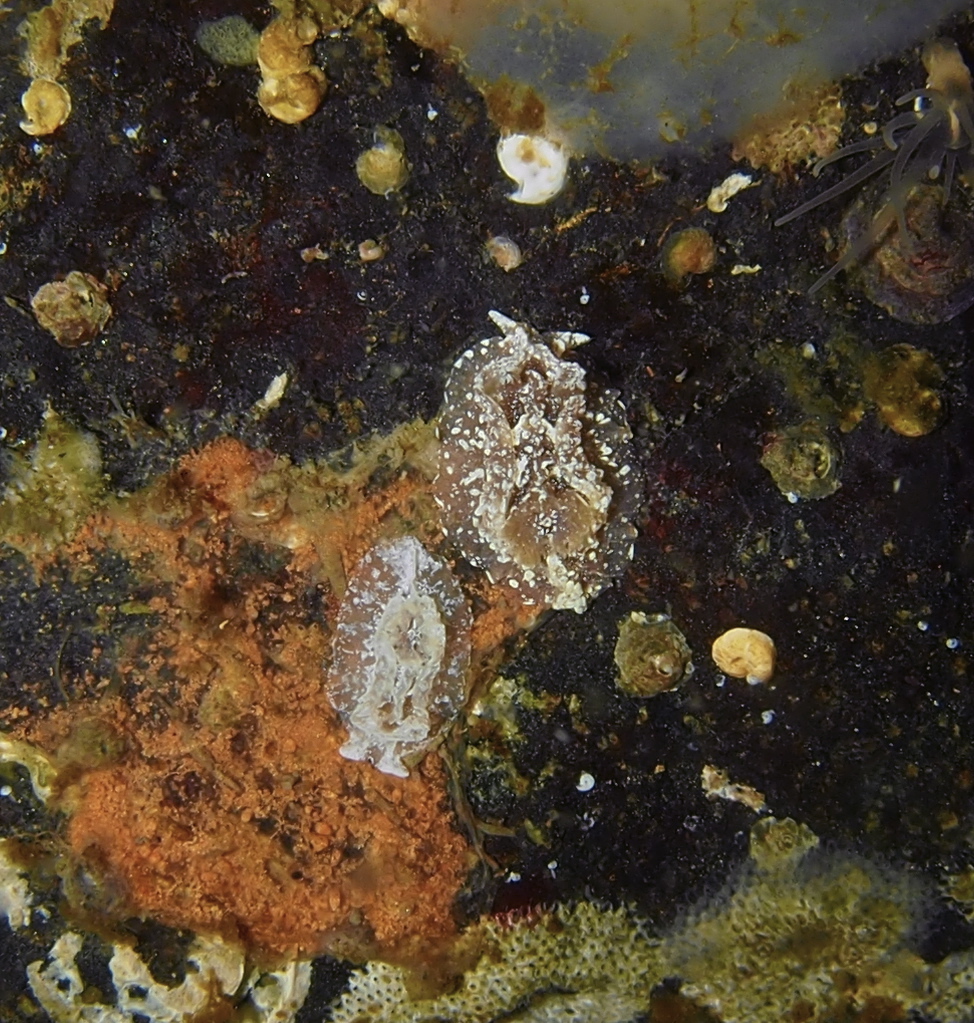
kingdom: Animalia
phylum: Mollusca
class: Gastropoda
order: Nudibranchia
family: Goniodorididae
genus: Pelagella
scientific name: Pelagella castanea
